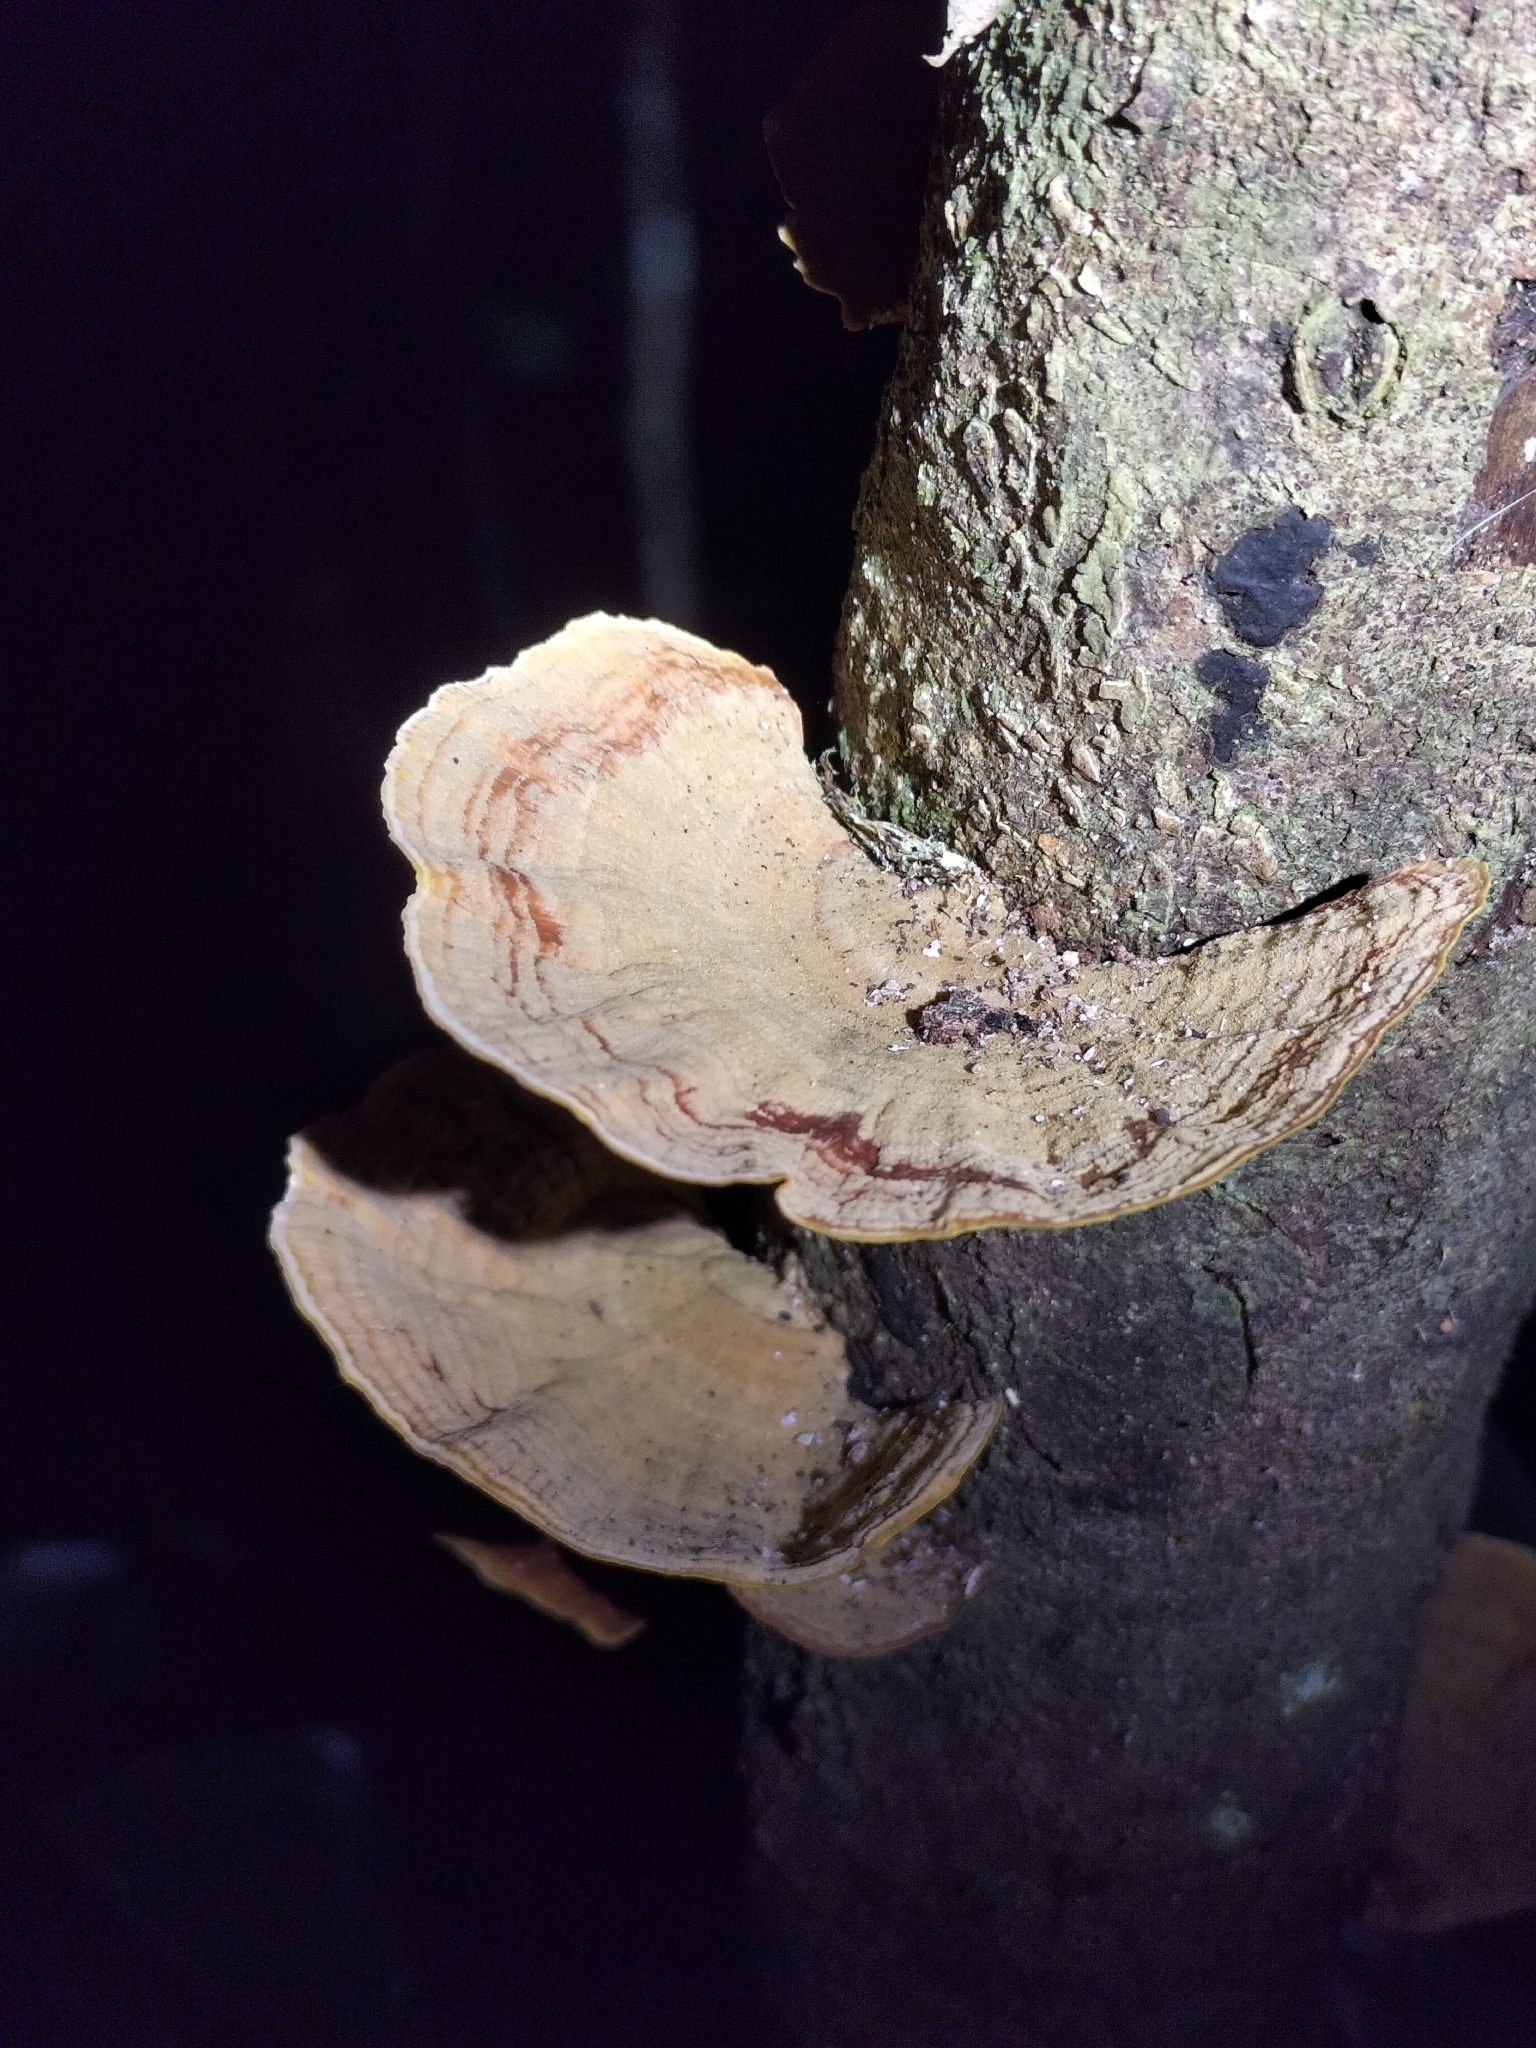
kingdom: Fungi
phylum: Basidiomycota
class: Agaricomycetes
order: Russulales
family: Stereaceae
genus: Stereum
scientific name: Stereum ostrea
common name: False turkeytail
